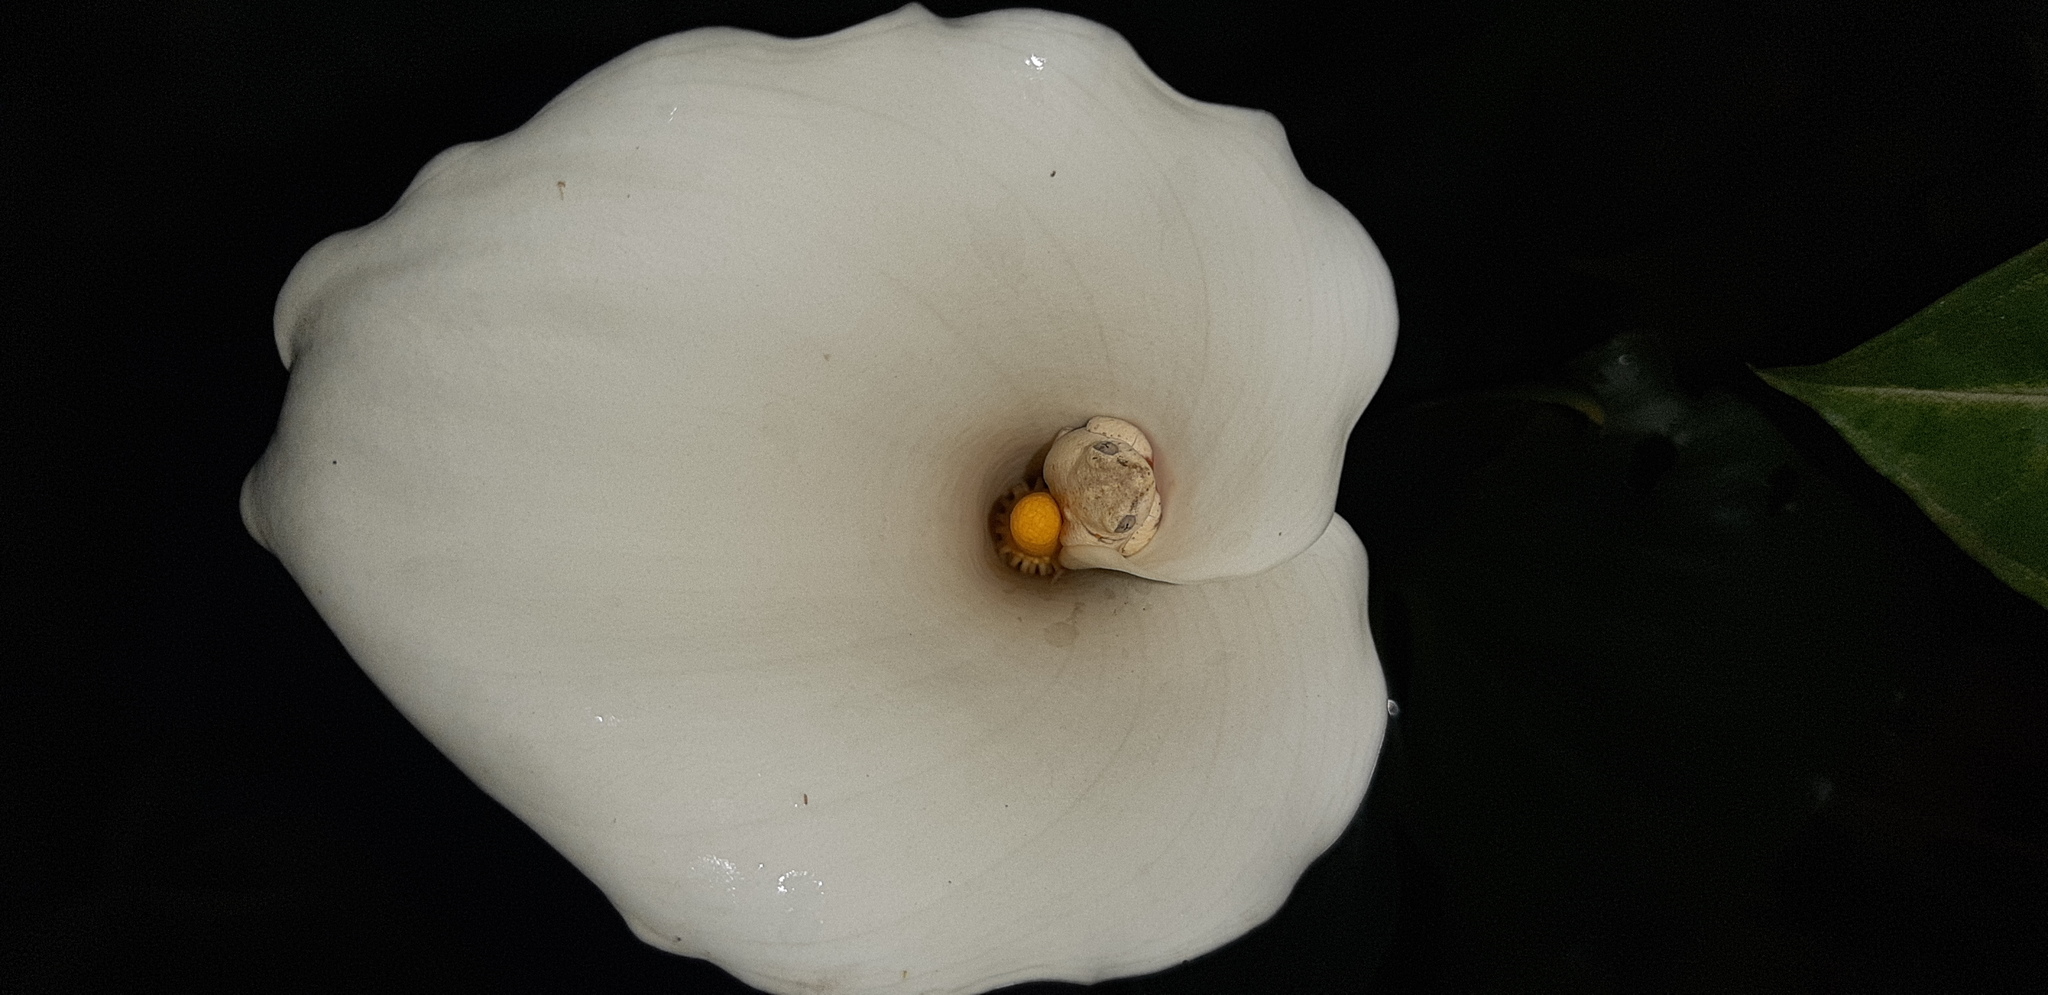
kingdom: Animalia
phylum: Chordata
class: Amphibia
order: Anura
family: Hyperoliidae
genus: Hyperolius
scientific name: Hyperolius marmoratus
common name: Painted reed frog
